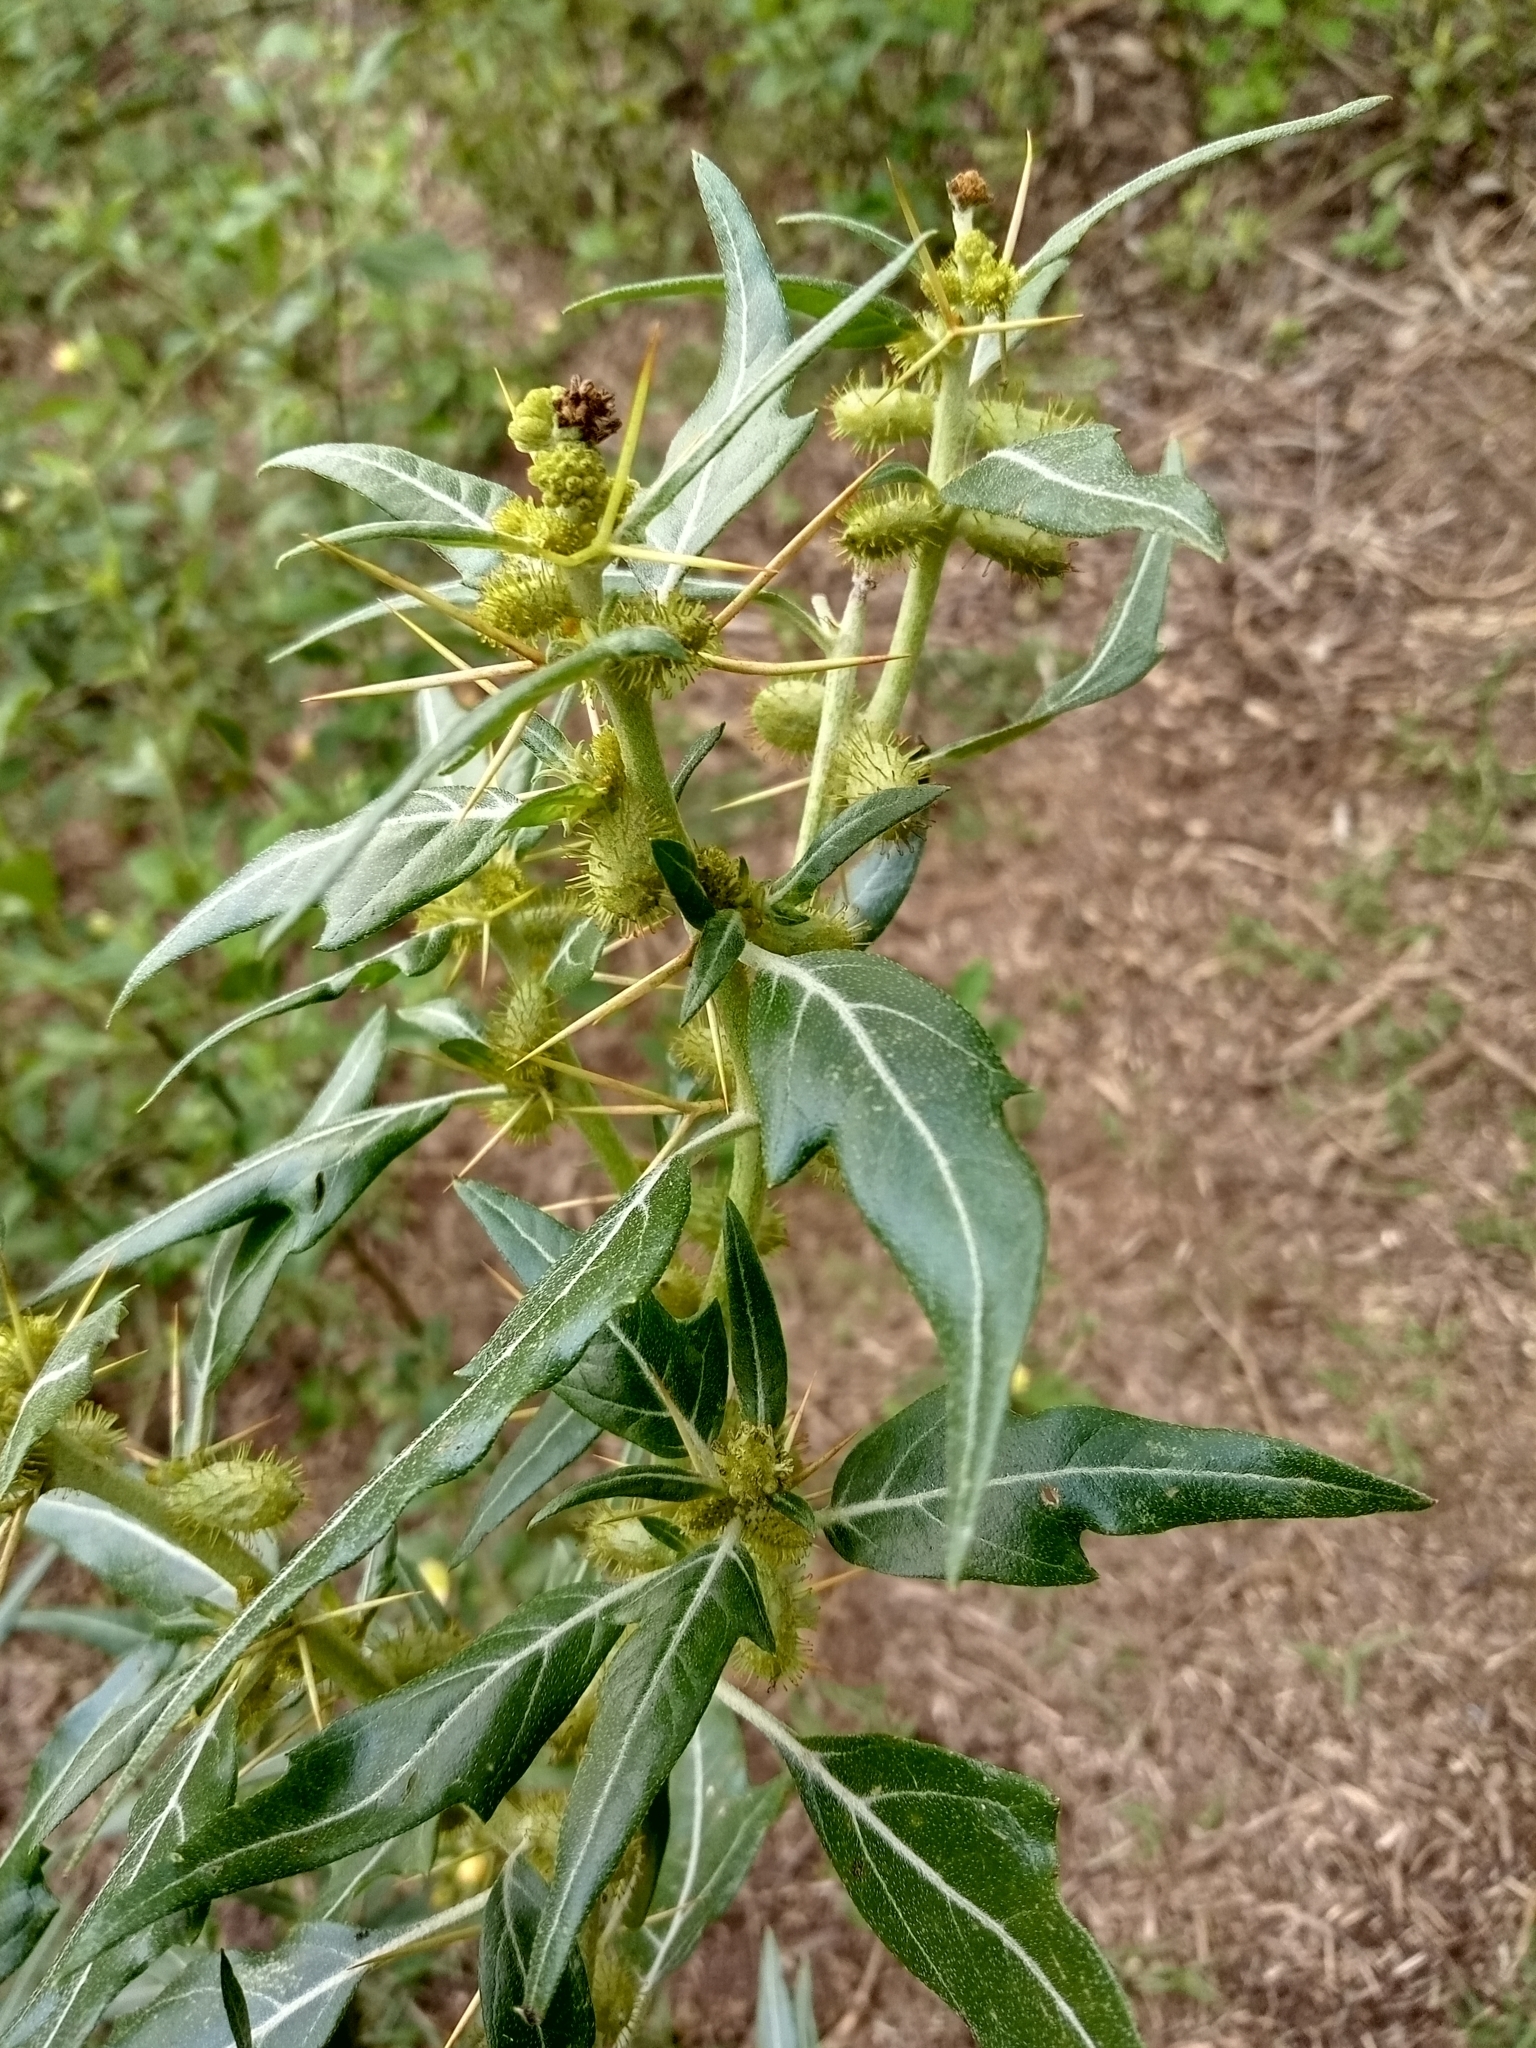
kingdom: Plantae
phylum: Tracheophyta
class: Magnoliopsida
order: Asterales
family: Asteraceae
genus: Xanthium
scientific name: Xanthium spinosum
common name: Spiny cocklebur
